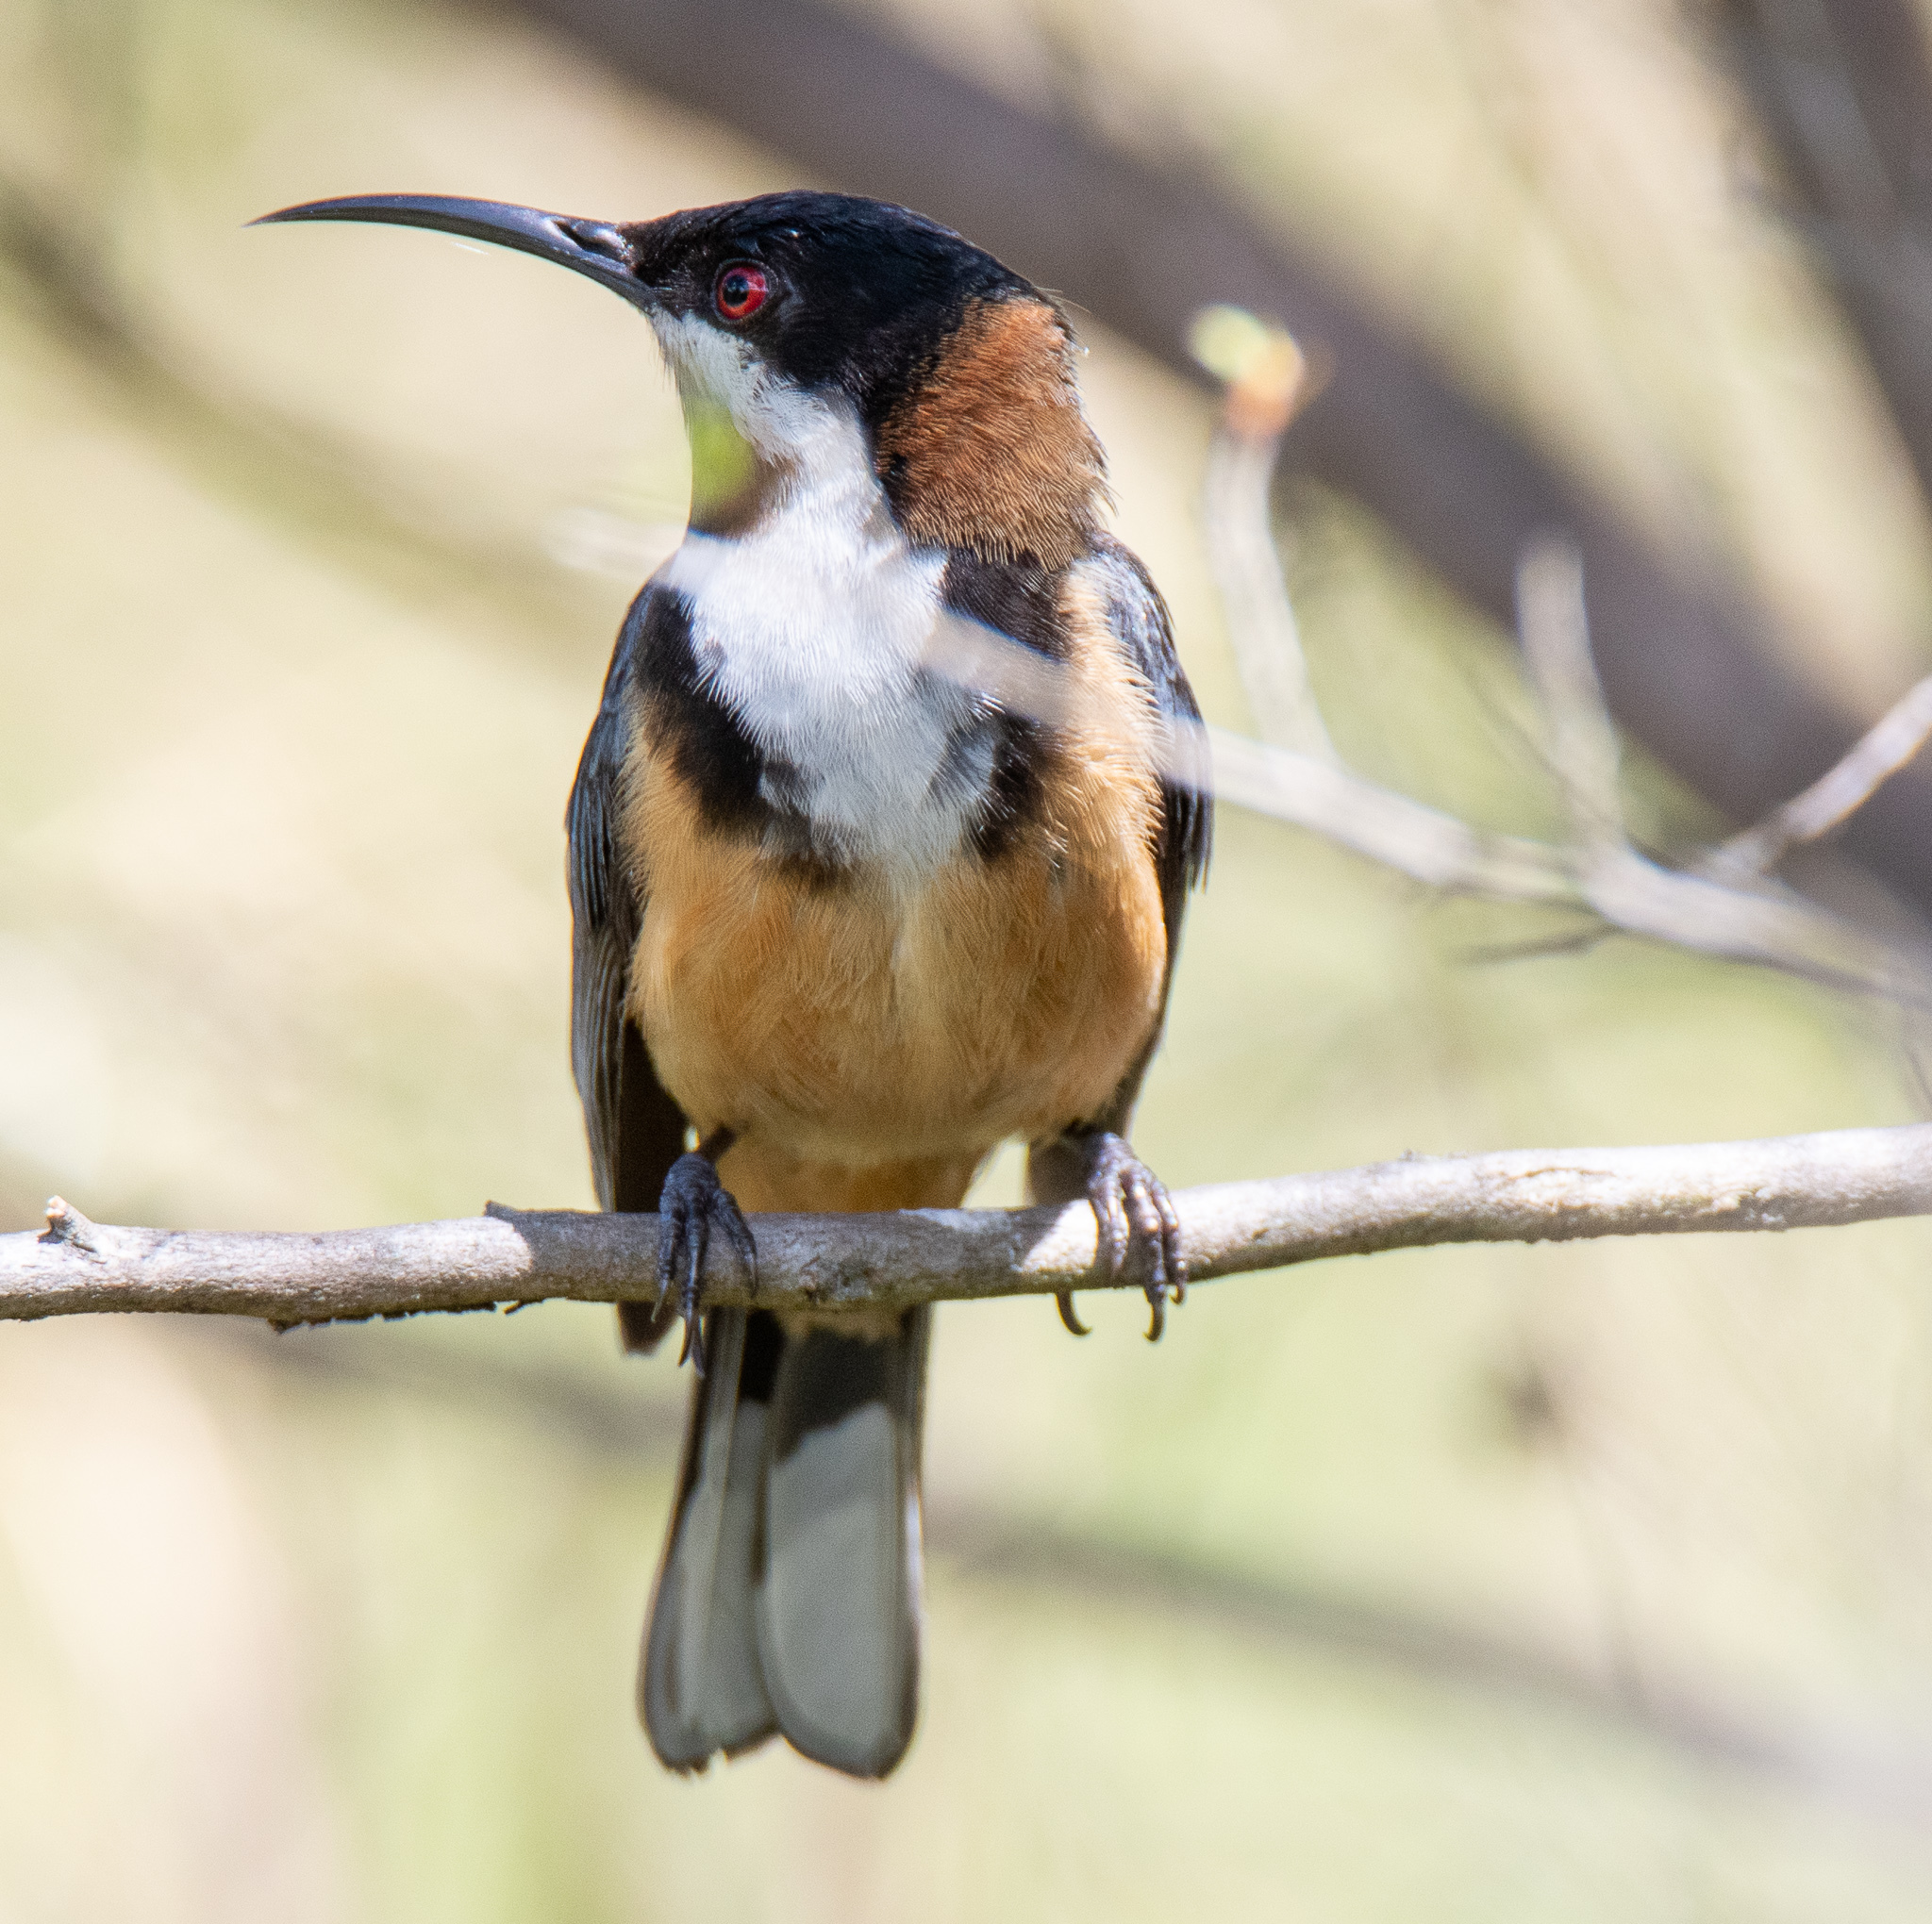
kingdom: Animalia
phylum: Chordata
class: Aves
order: Passeriformes
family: Meliphagidae
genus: Acanthorhynchus
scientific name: Acanthorhynchus tenuirostris
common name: Eastern spinebill
